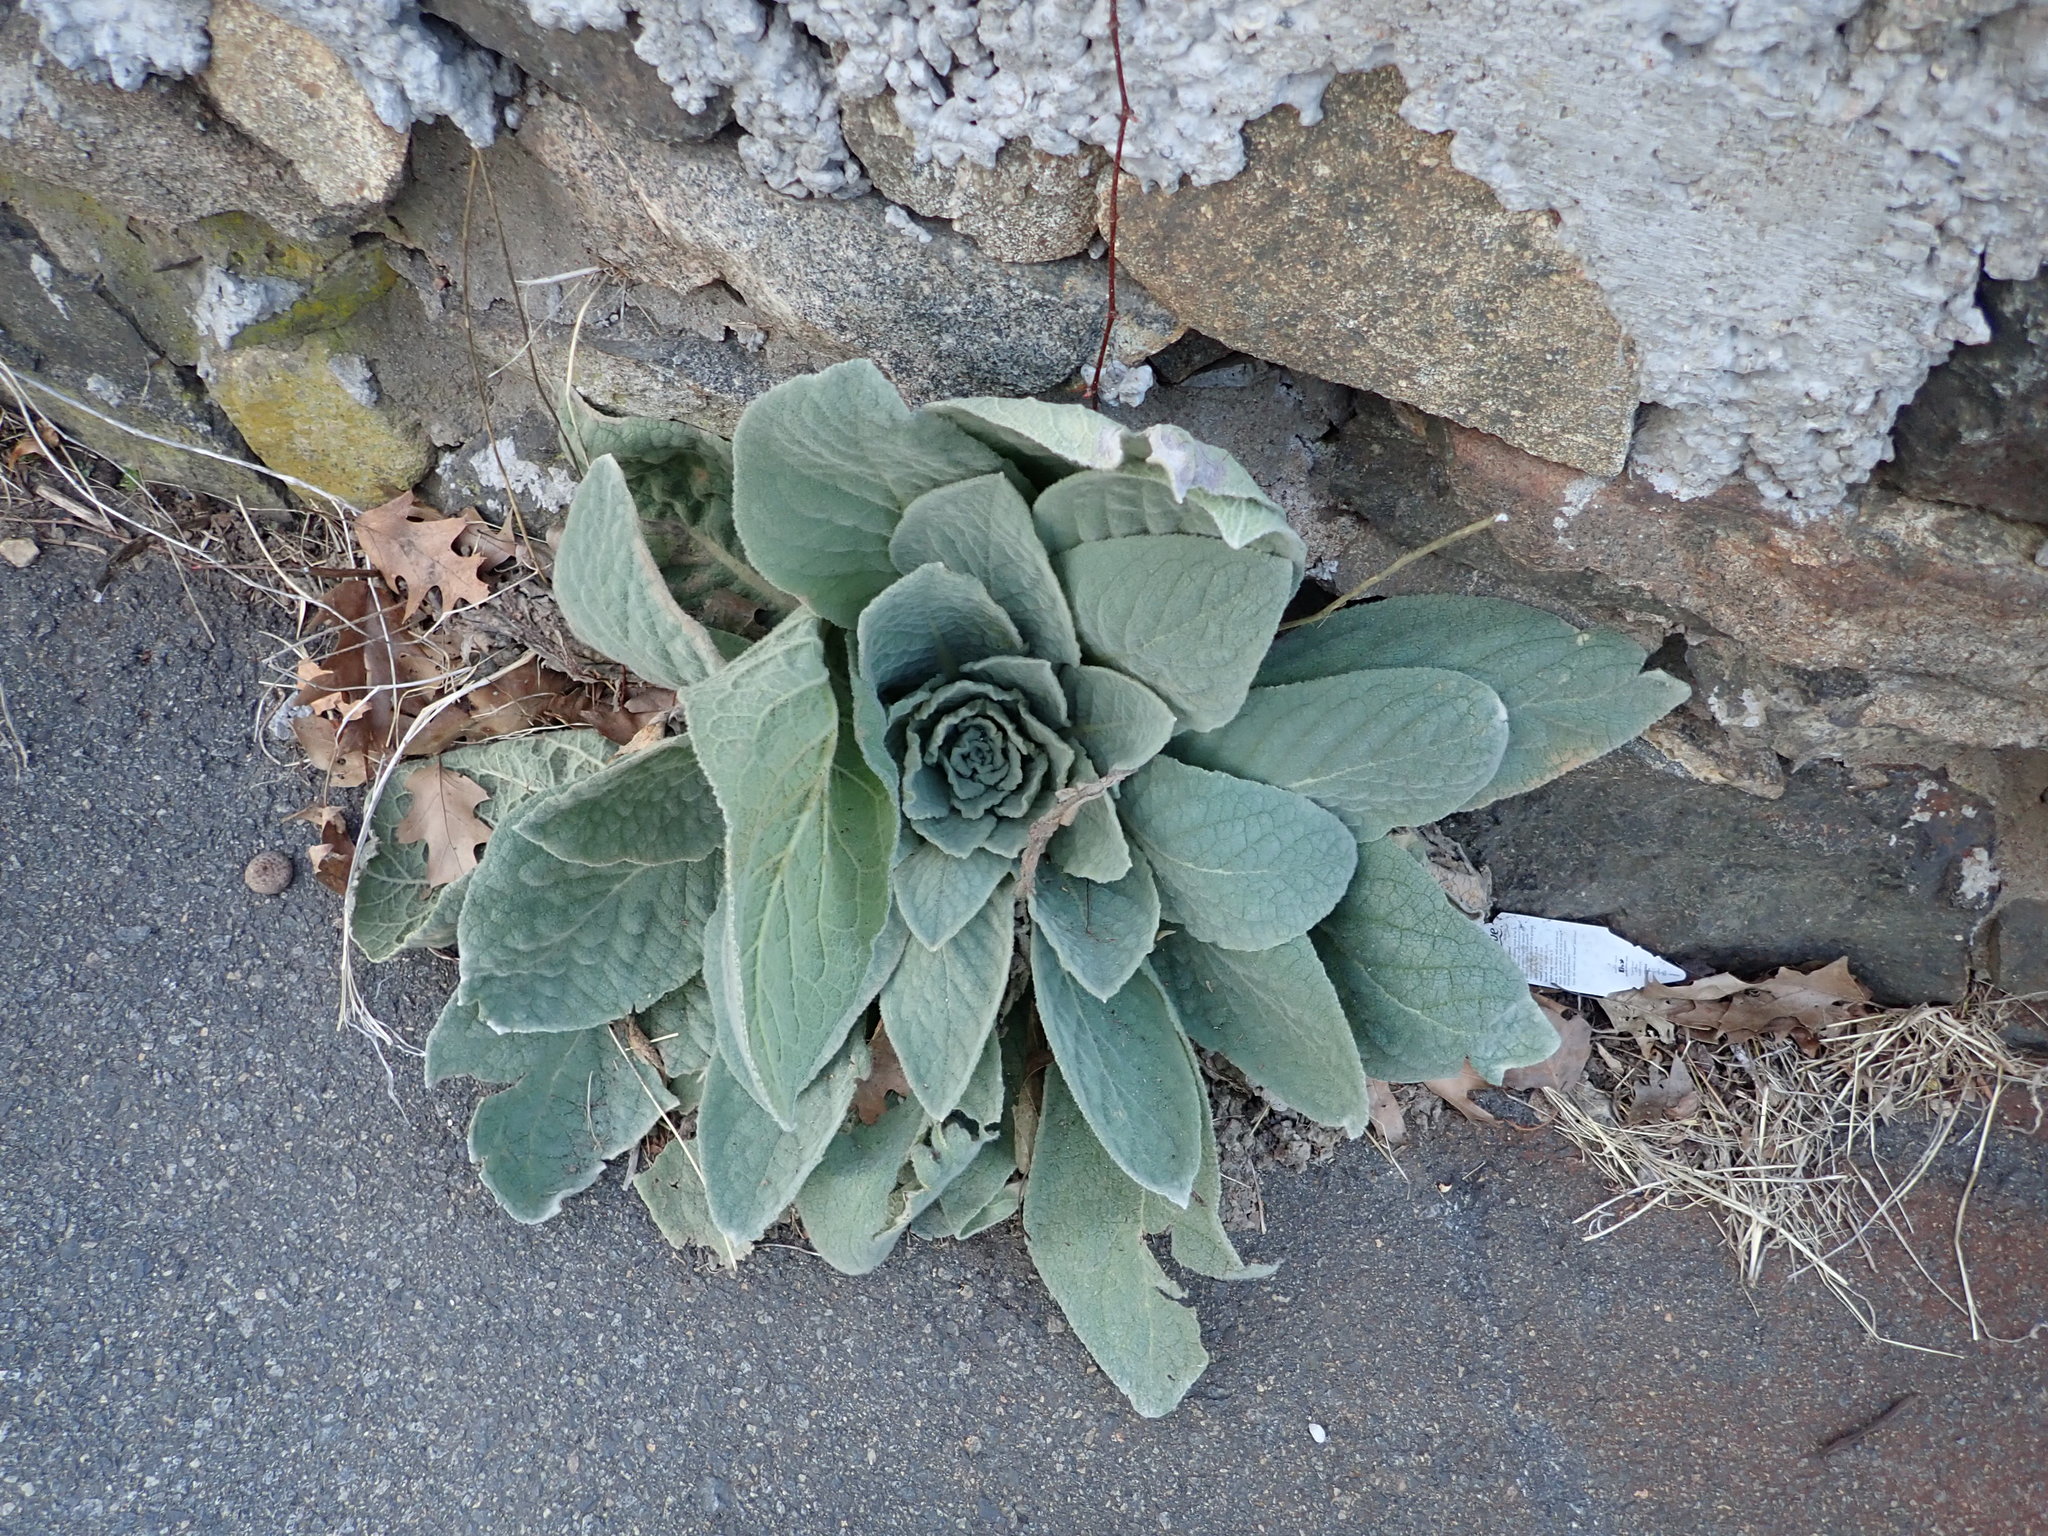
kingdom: Plantae
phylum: Tracheophyta
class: Magnoliopsida
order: Lamiales
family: Scrophulariaceae
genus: Verbascum
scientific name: Verbascum thapsus
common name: Common mullein
